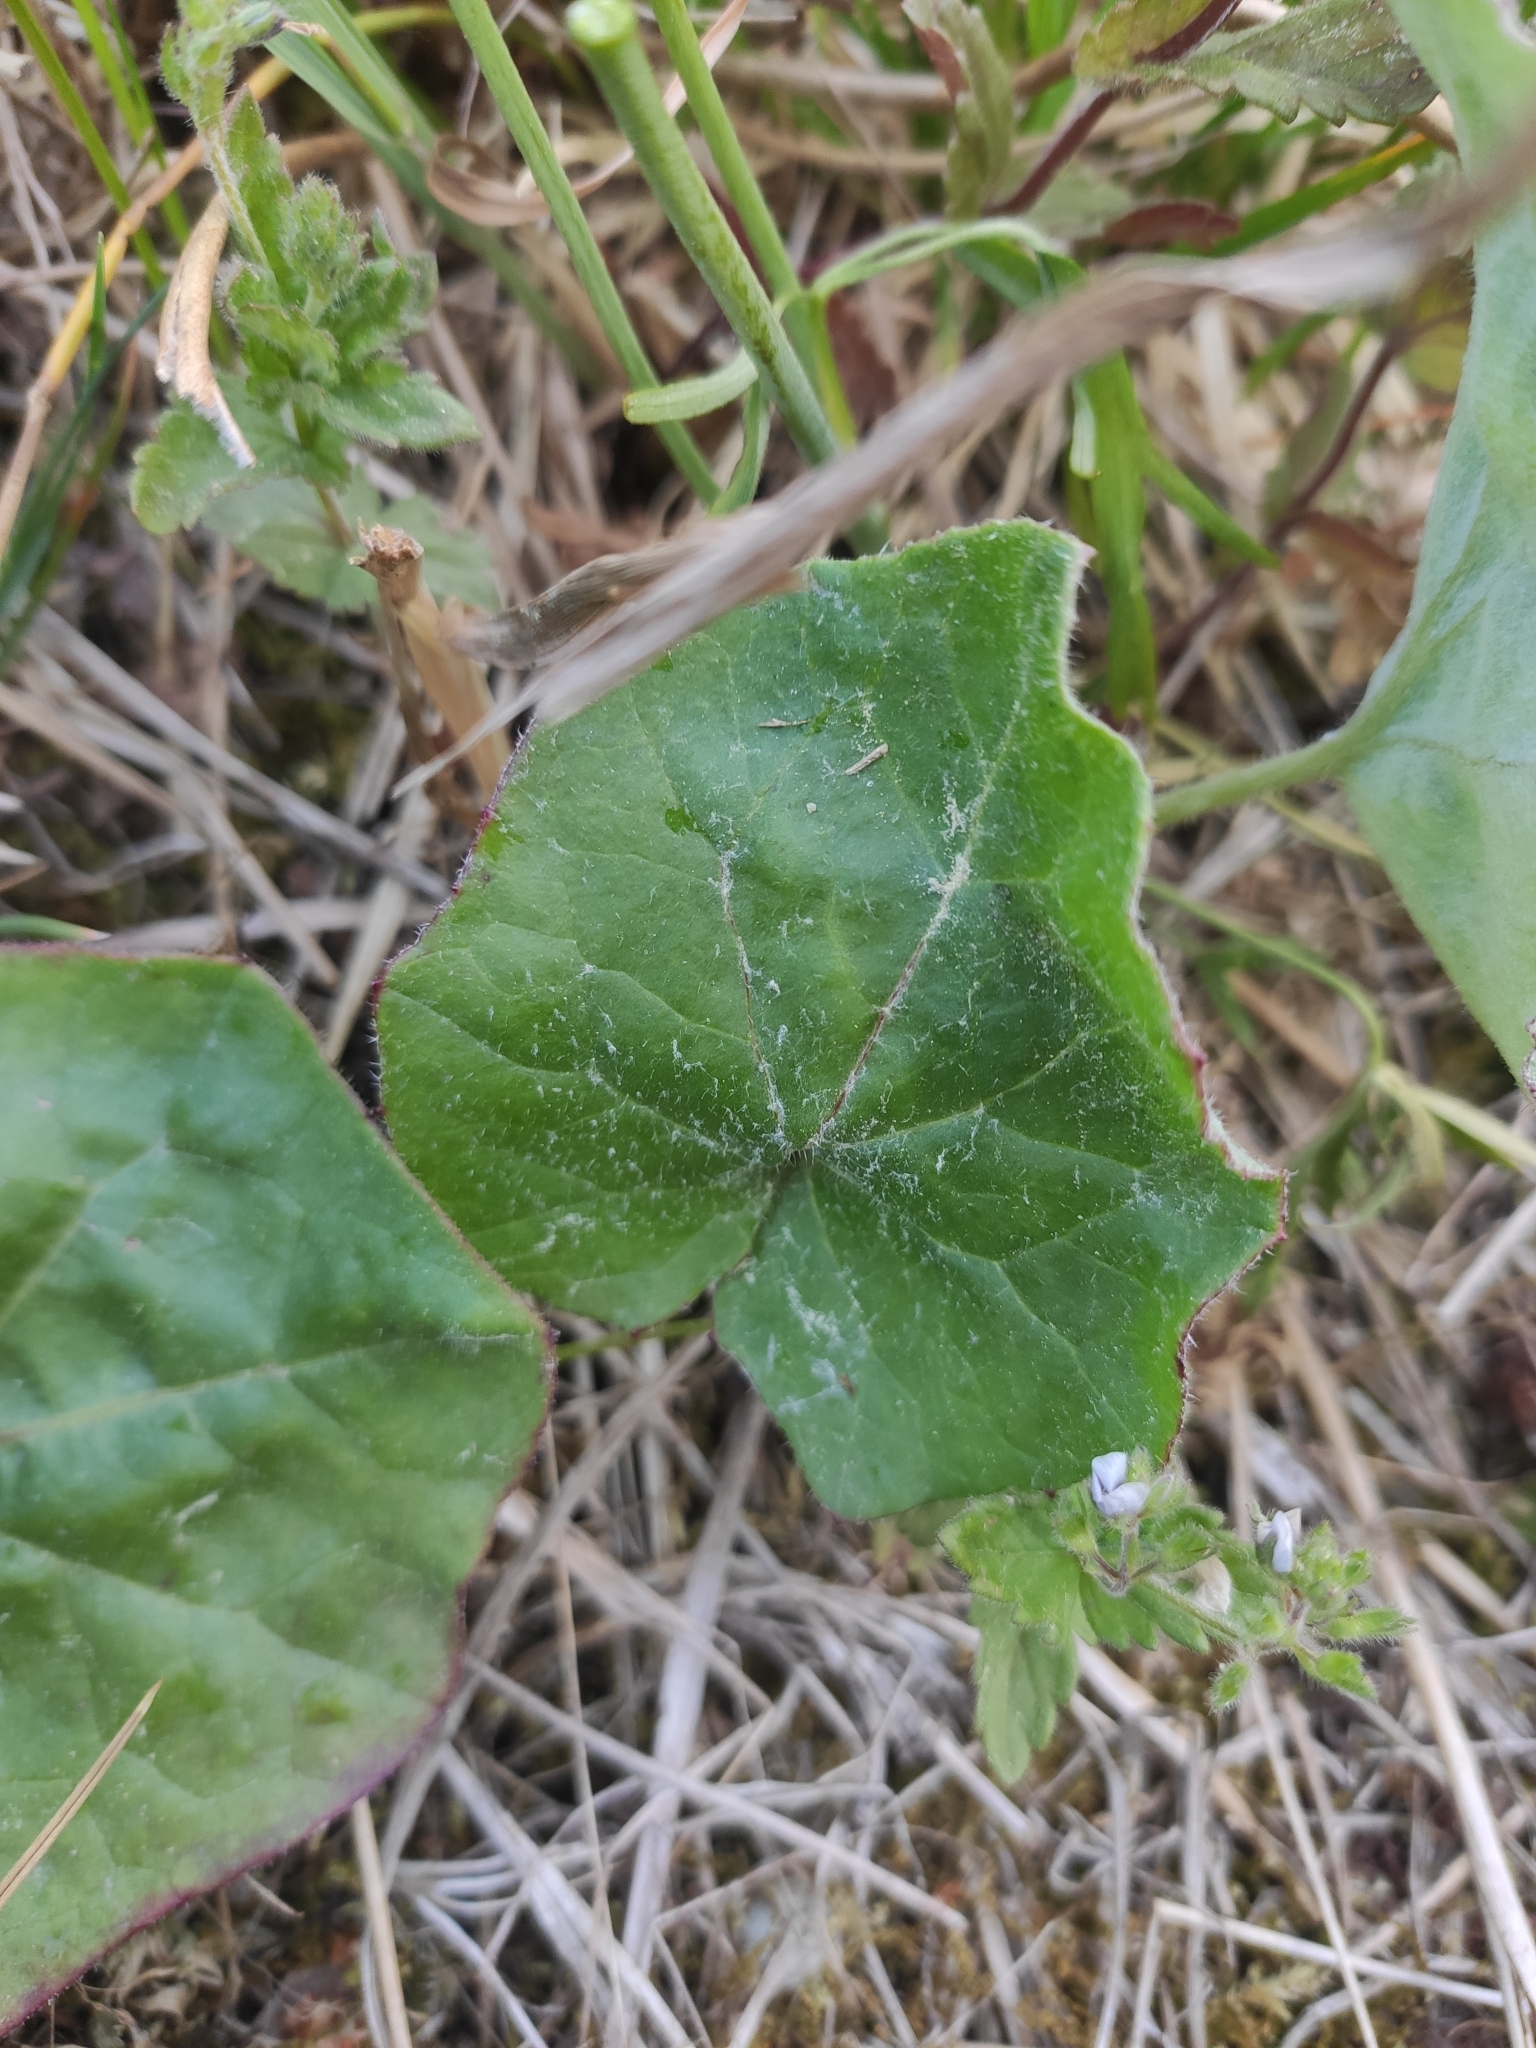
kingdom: Plantae
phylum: Tracheophyta
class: Magnoliopsida
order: Asterales
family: Asteraceae
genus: Tussilago
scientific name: Tussilago farfara
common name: Coltsfoot
